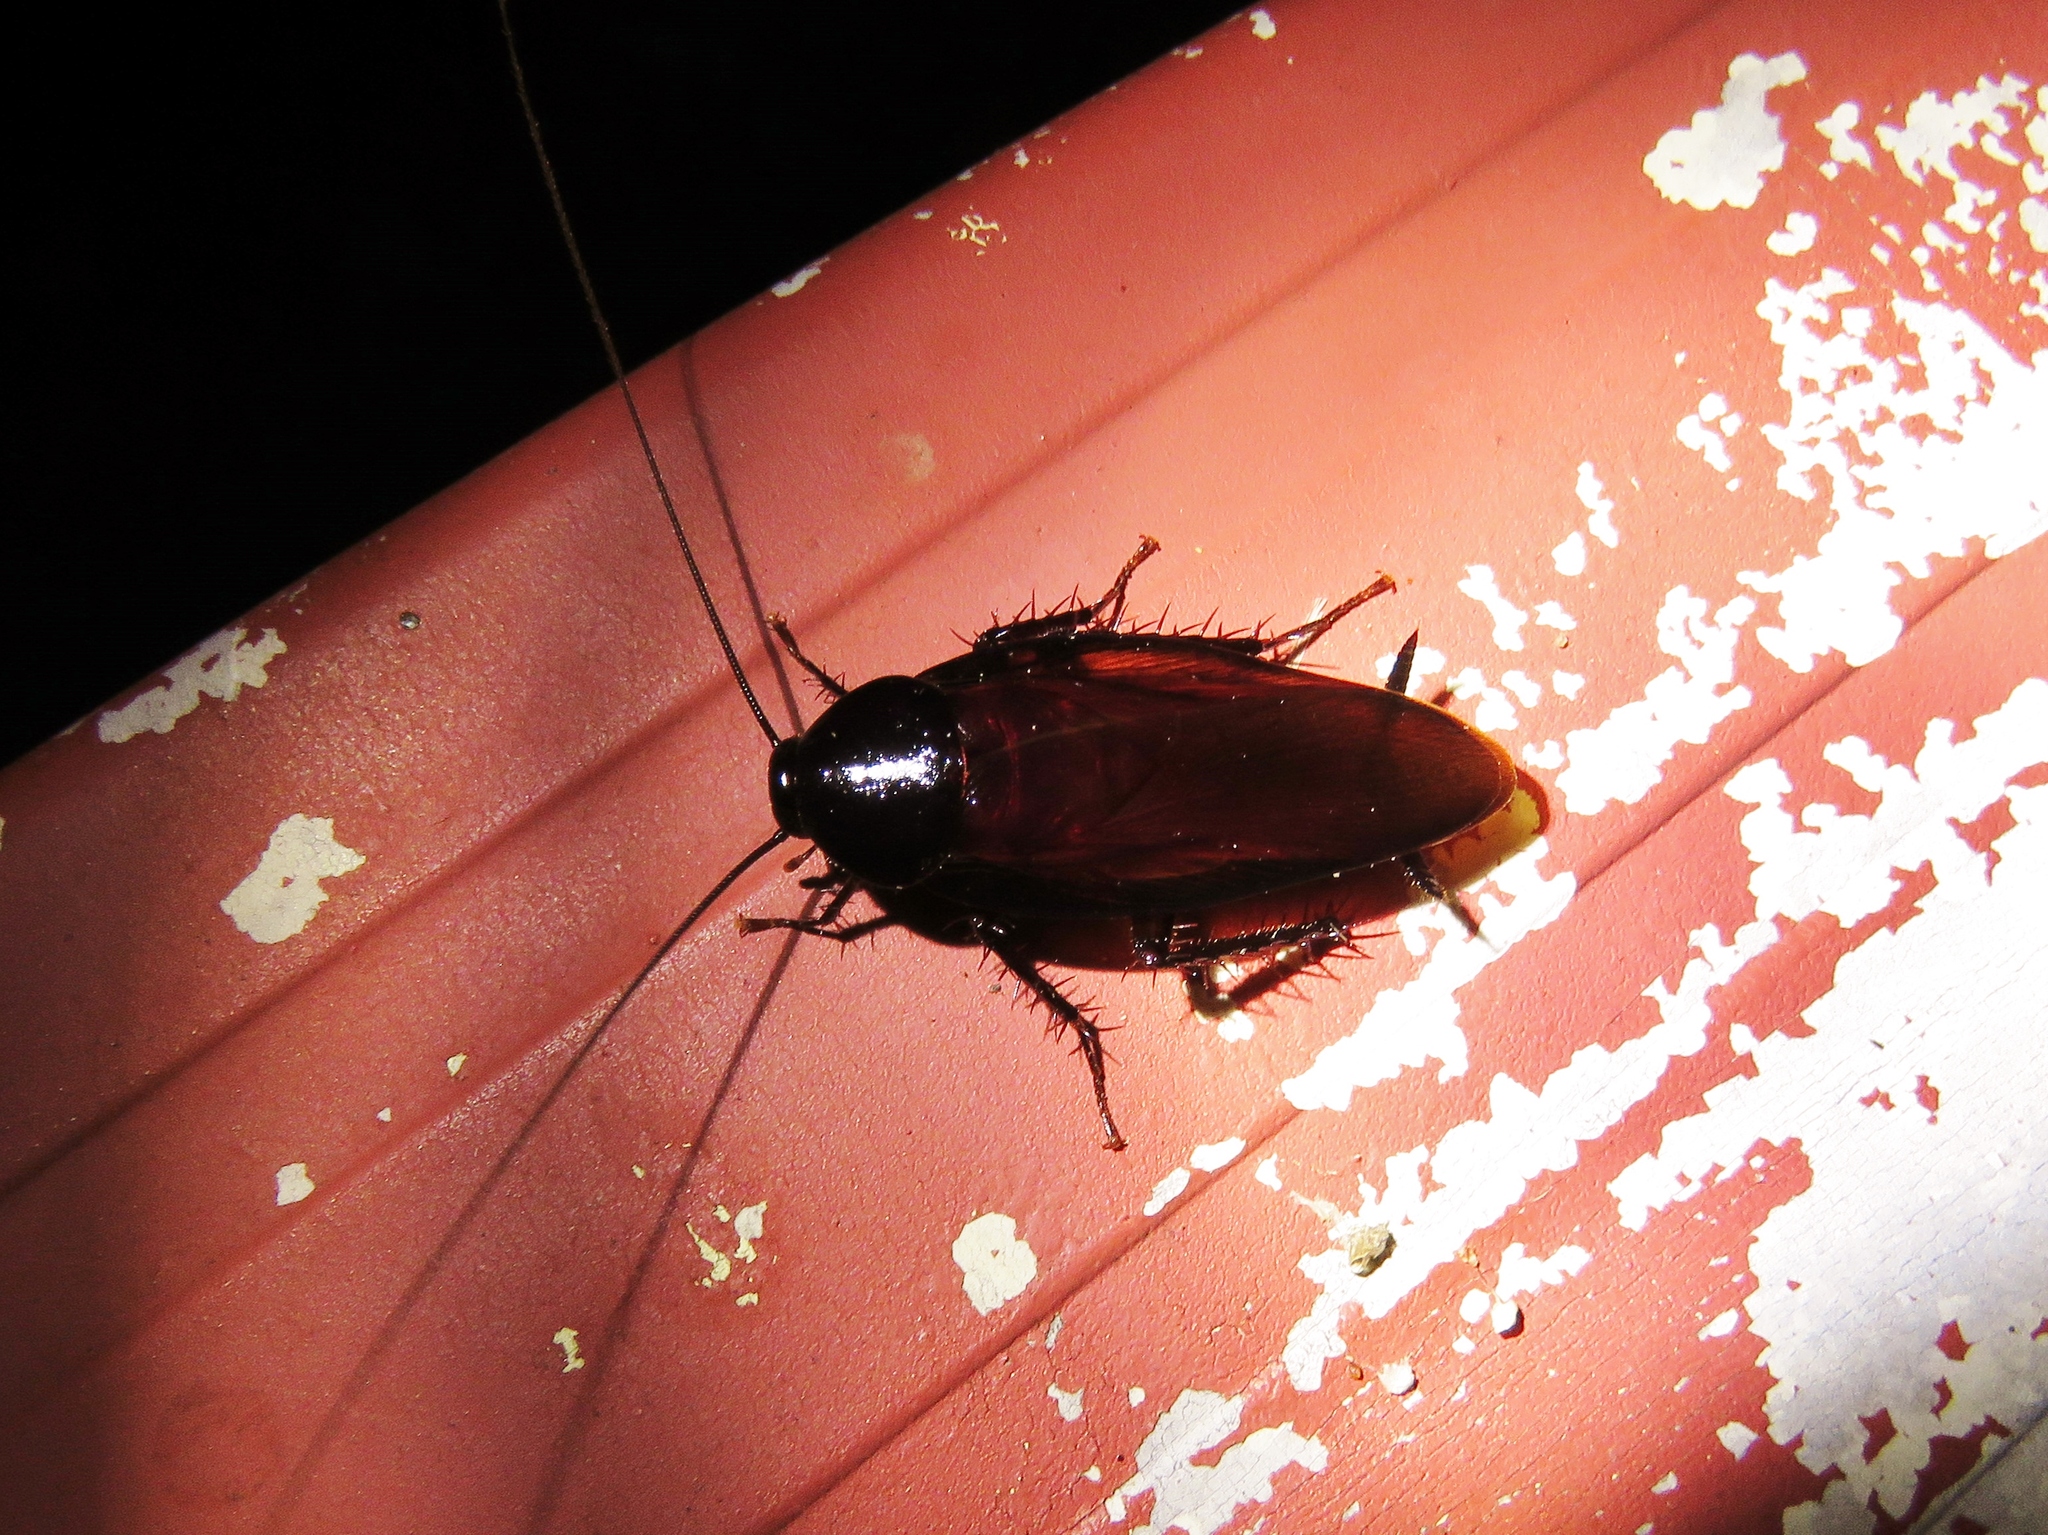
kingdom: Animalia
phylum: Arthropoda
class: Insecta
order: Blattodea
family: Blattidae
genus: Periplaneta
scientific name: Periplaneta fuliginosa
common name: Smokeybrown cockroad
